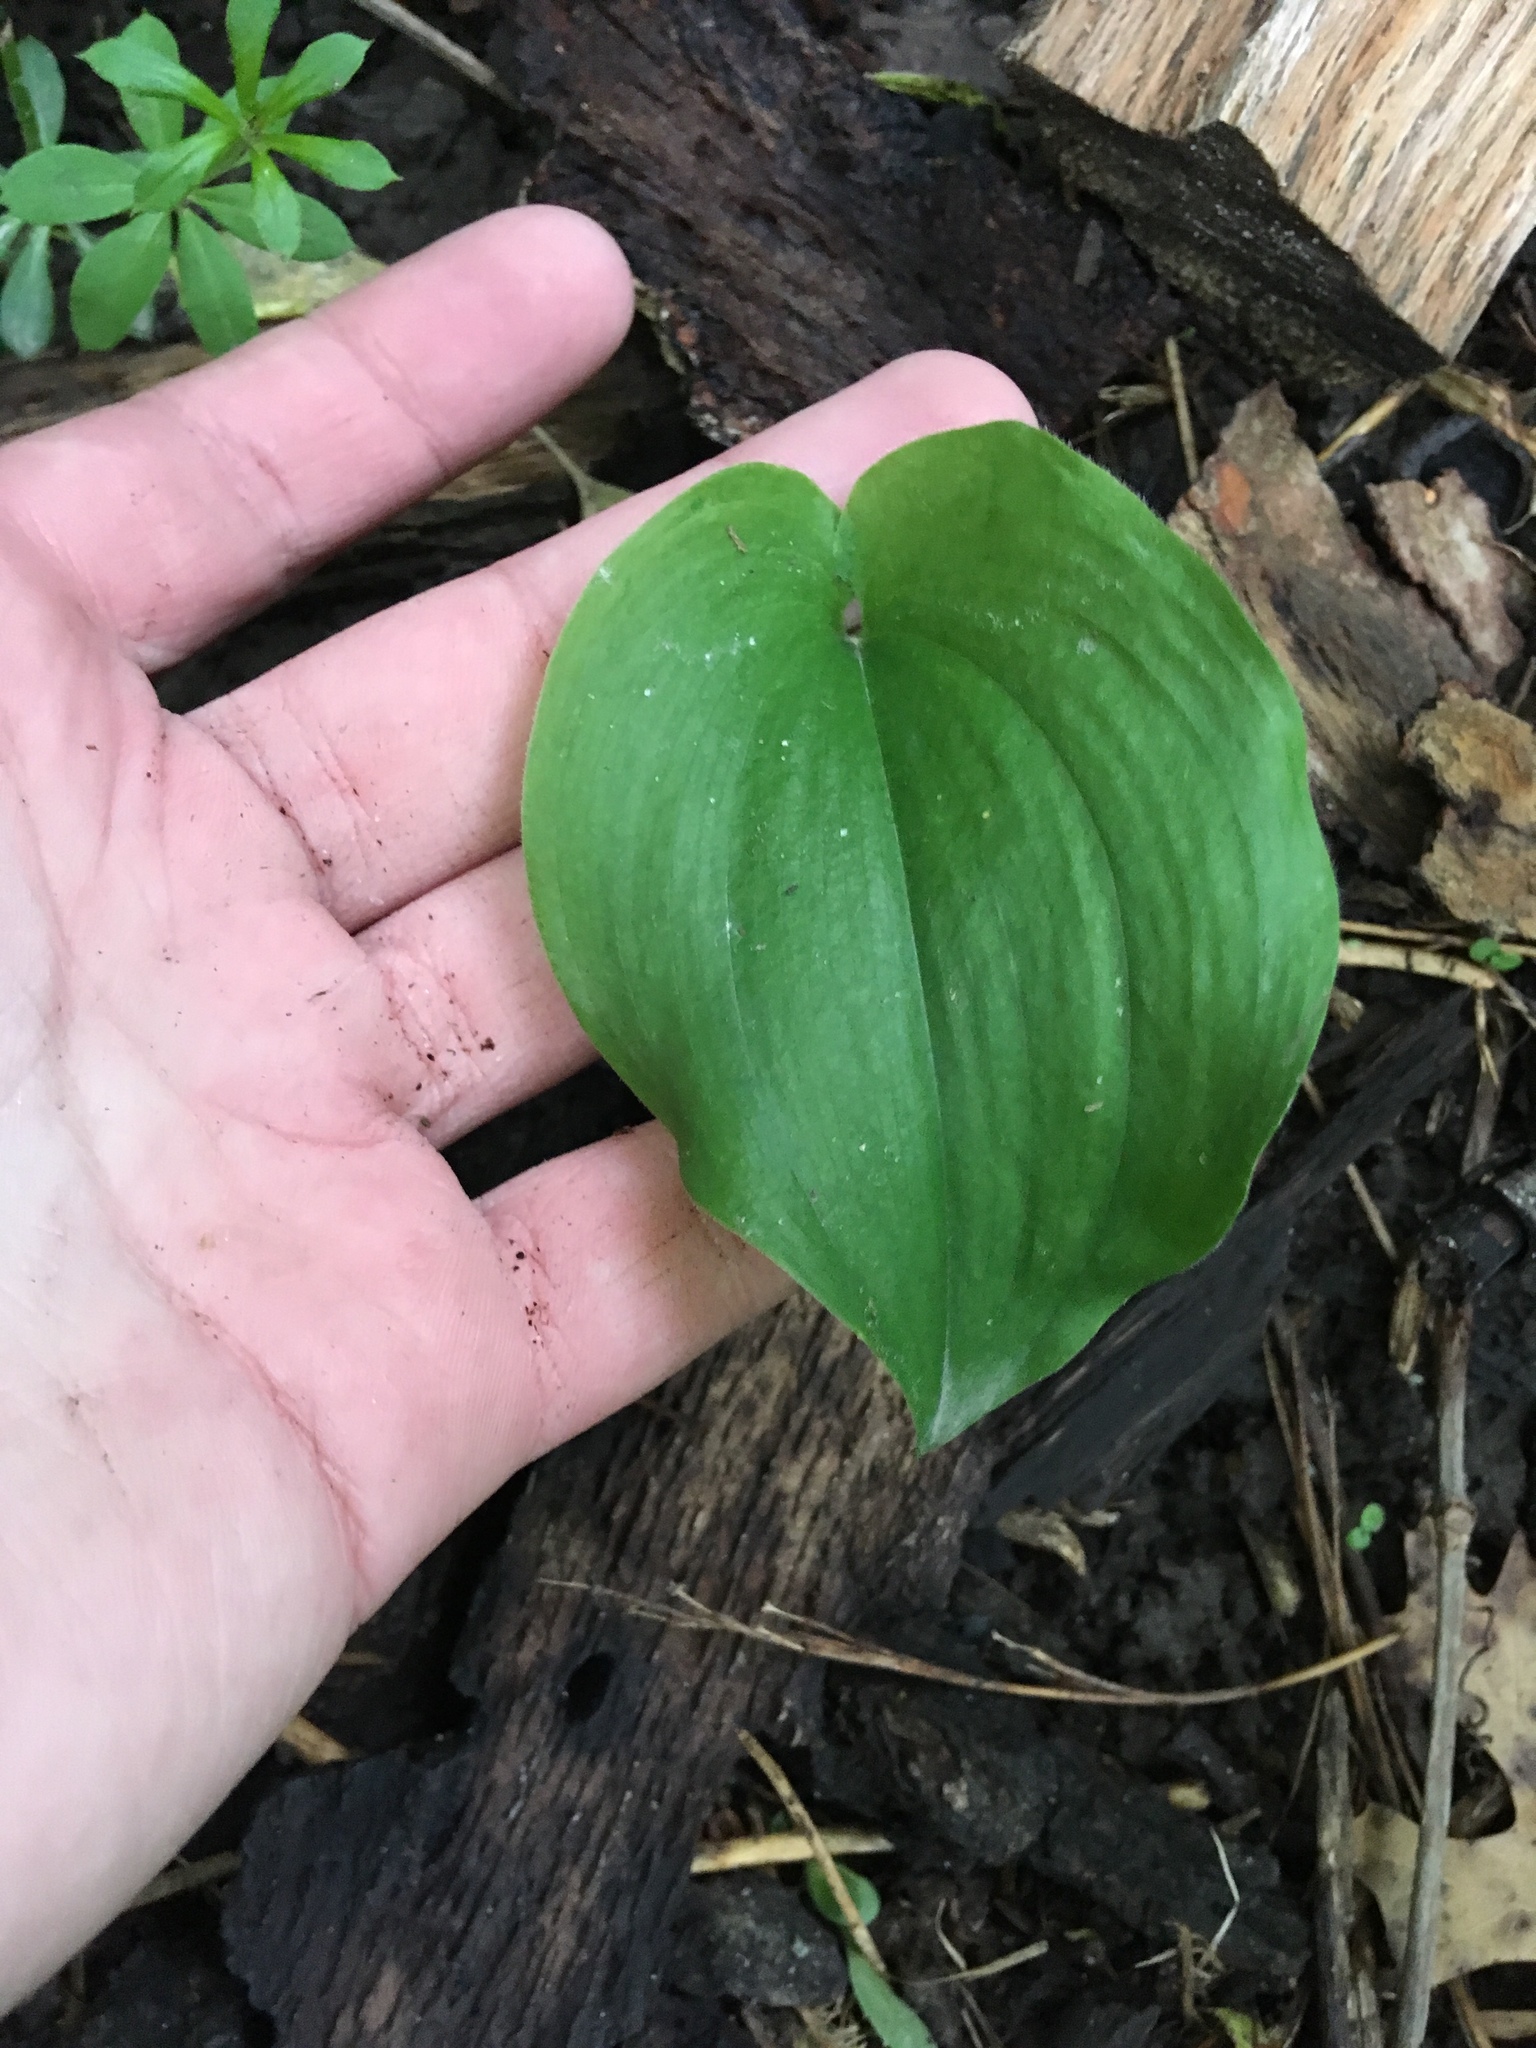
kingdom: Plantae
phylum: Tracheophyta
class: Liliopsida
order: Asparagales
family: Asparagaceae
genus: Maianthemum
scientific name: Maianthemum canadense
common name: False lily-of-the-valley
